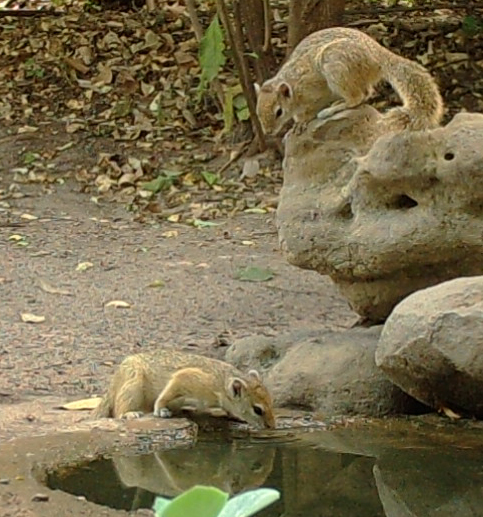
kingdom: Animalia
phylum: Chordata
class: Mammalia
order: Rodentia
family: Sciuridae
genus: Paraxerus
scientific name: Paraxerus cepapi
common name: Smith's bush squirrel
